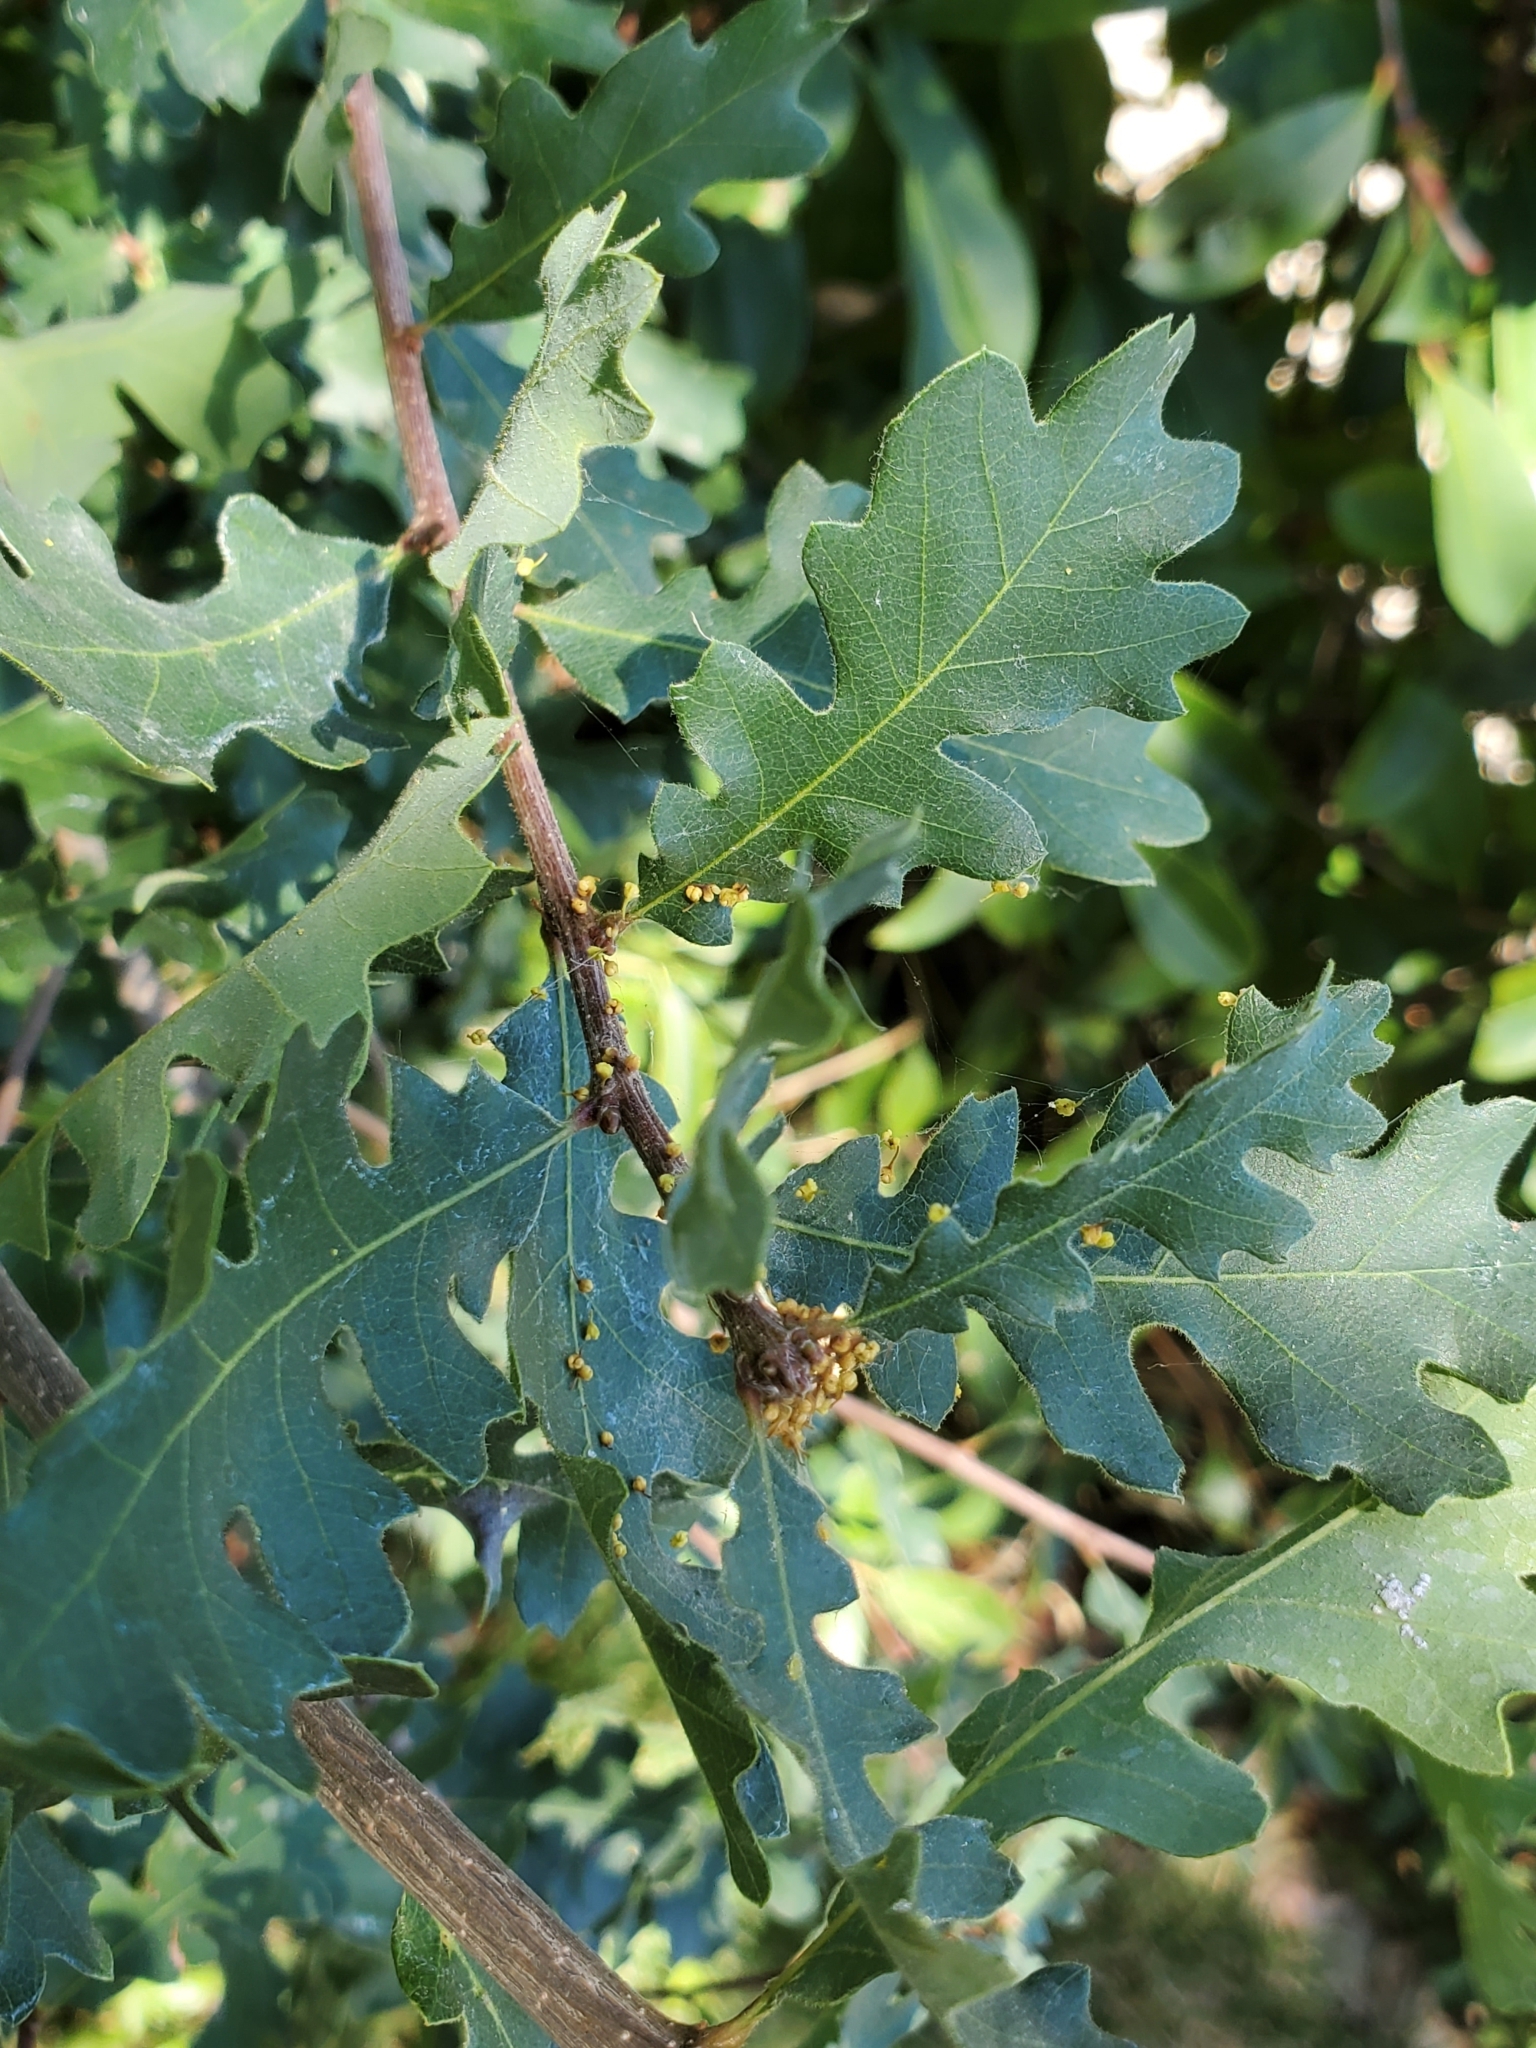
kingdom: Plantae
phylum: Tracheophyta
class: Magnoliopsida
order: Fagales
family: Fagaceae
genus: Quercus
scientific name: Quercus lobata
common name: Valley oak
